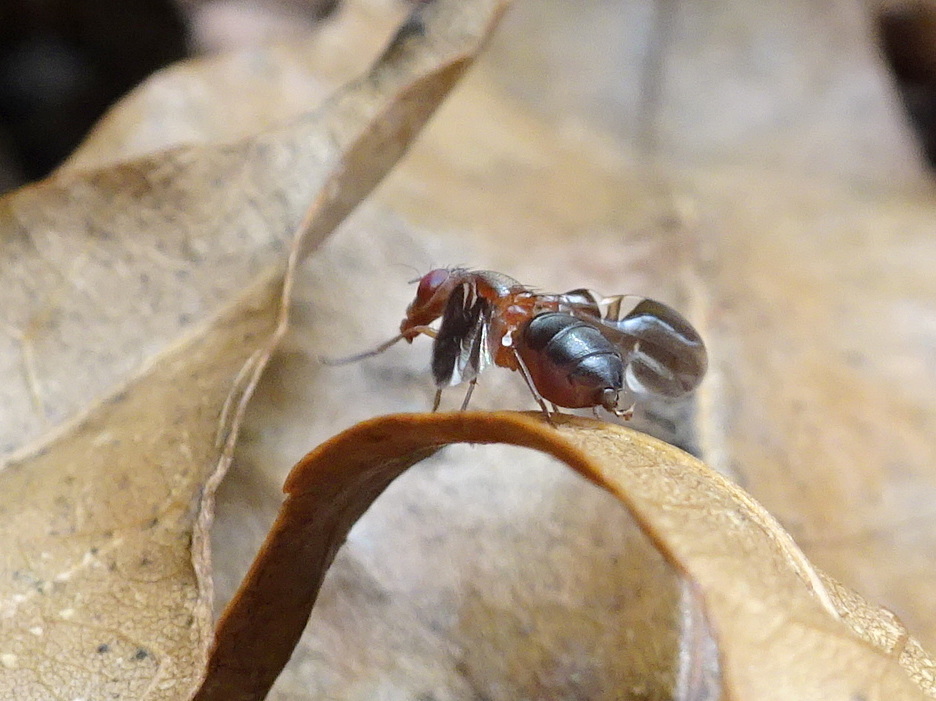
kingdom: Animalia
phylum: Arthropoda
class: Insecta
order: Diptera
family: Ulidiidae
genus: Delphinia
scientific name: Delphinia picta
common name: Common picture-winged fly
